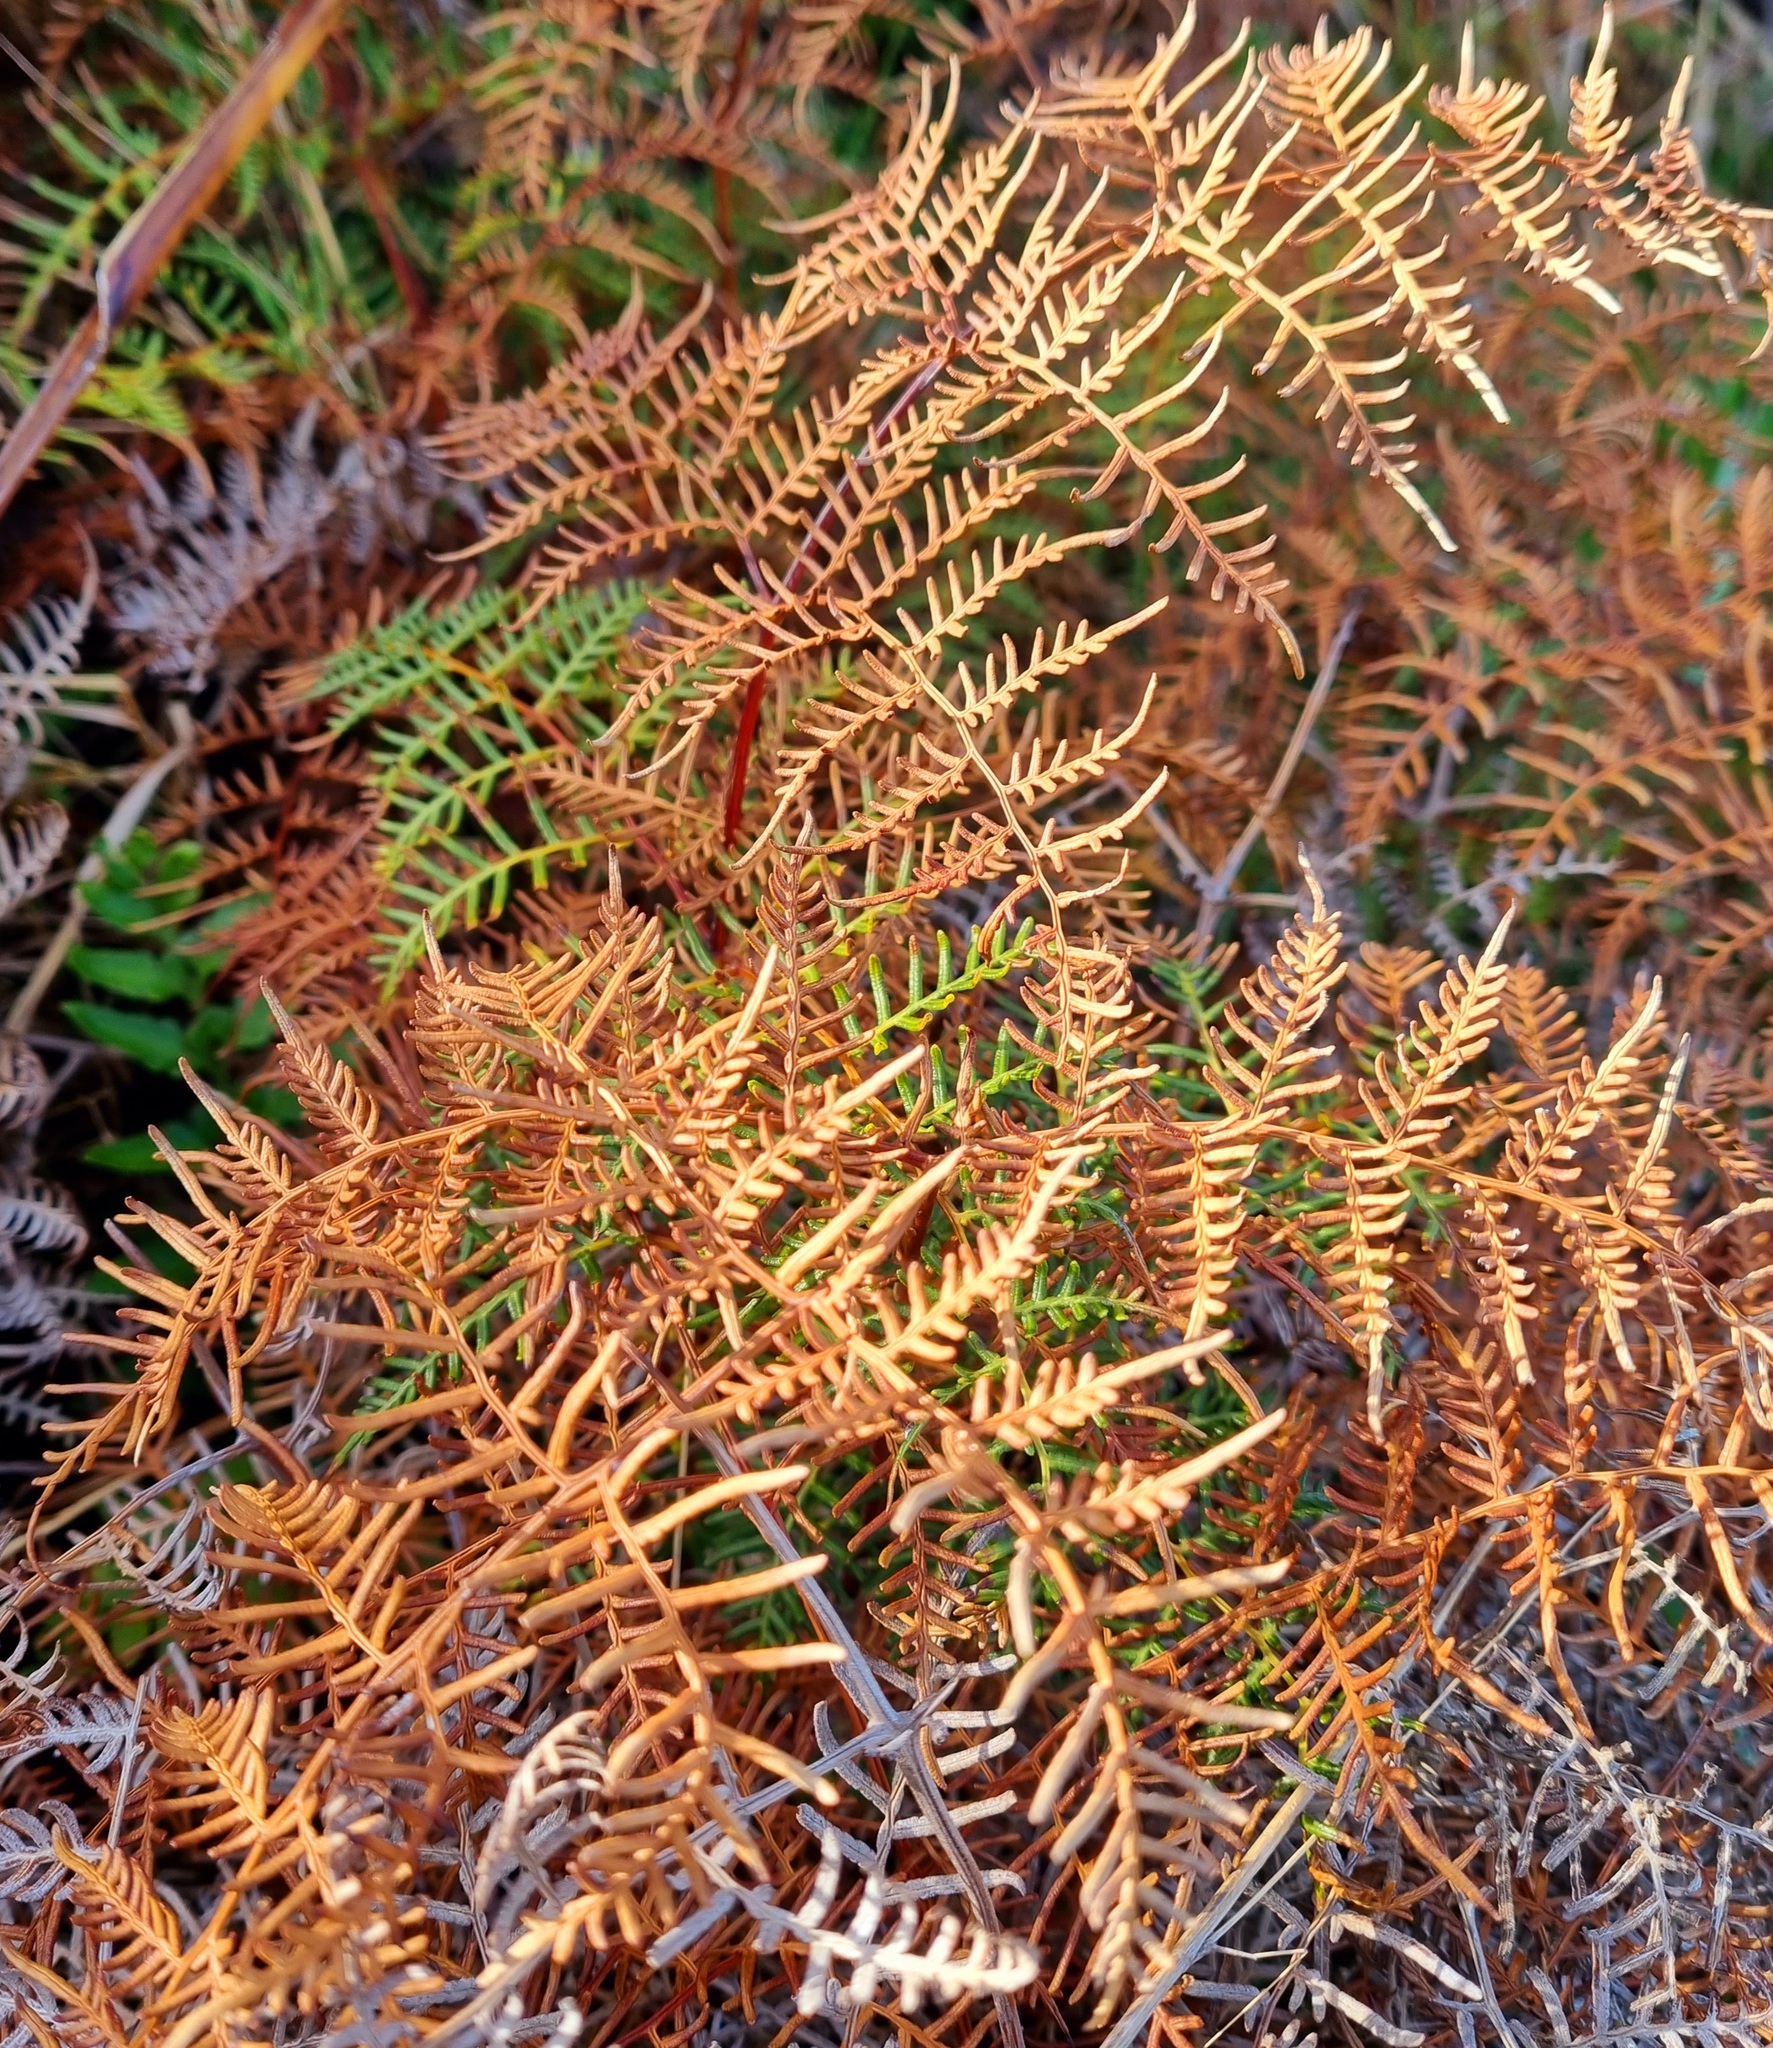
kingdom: Plantae
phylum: Tracheophyta
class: Polypodiopsida
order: Polypodiales
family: Dennstaedtiaceae
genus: Pteridium
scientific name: Pteridium esculentum
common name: Bracken fern
